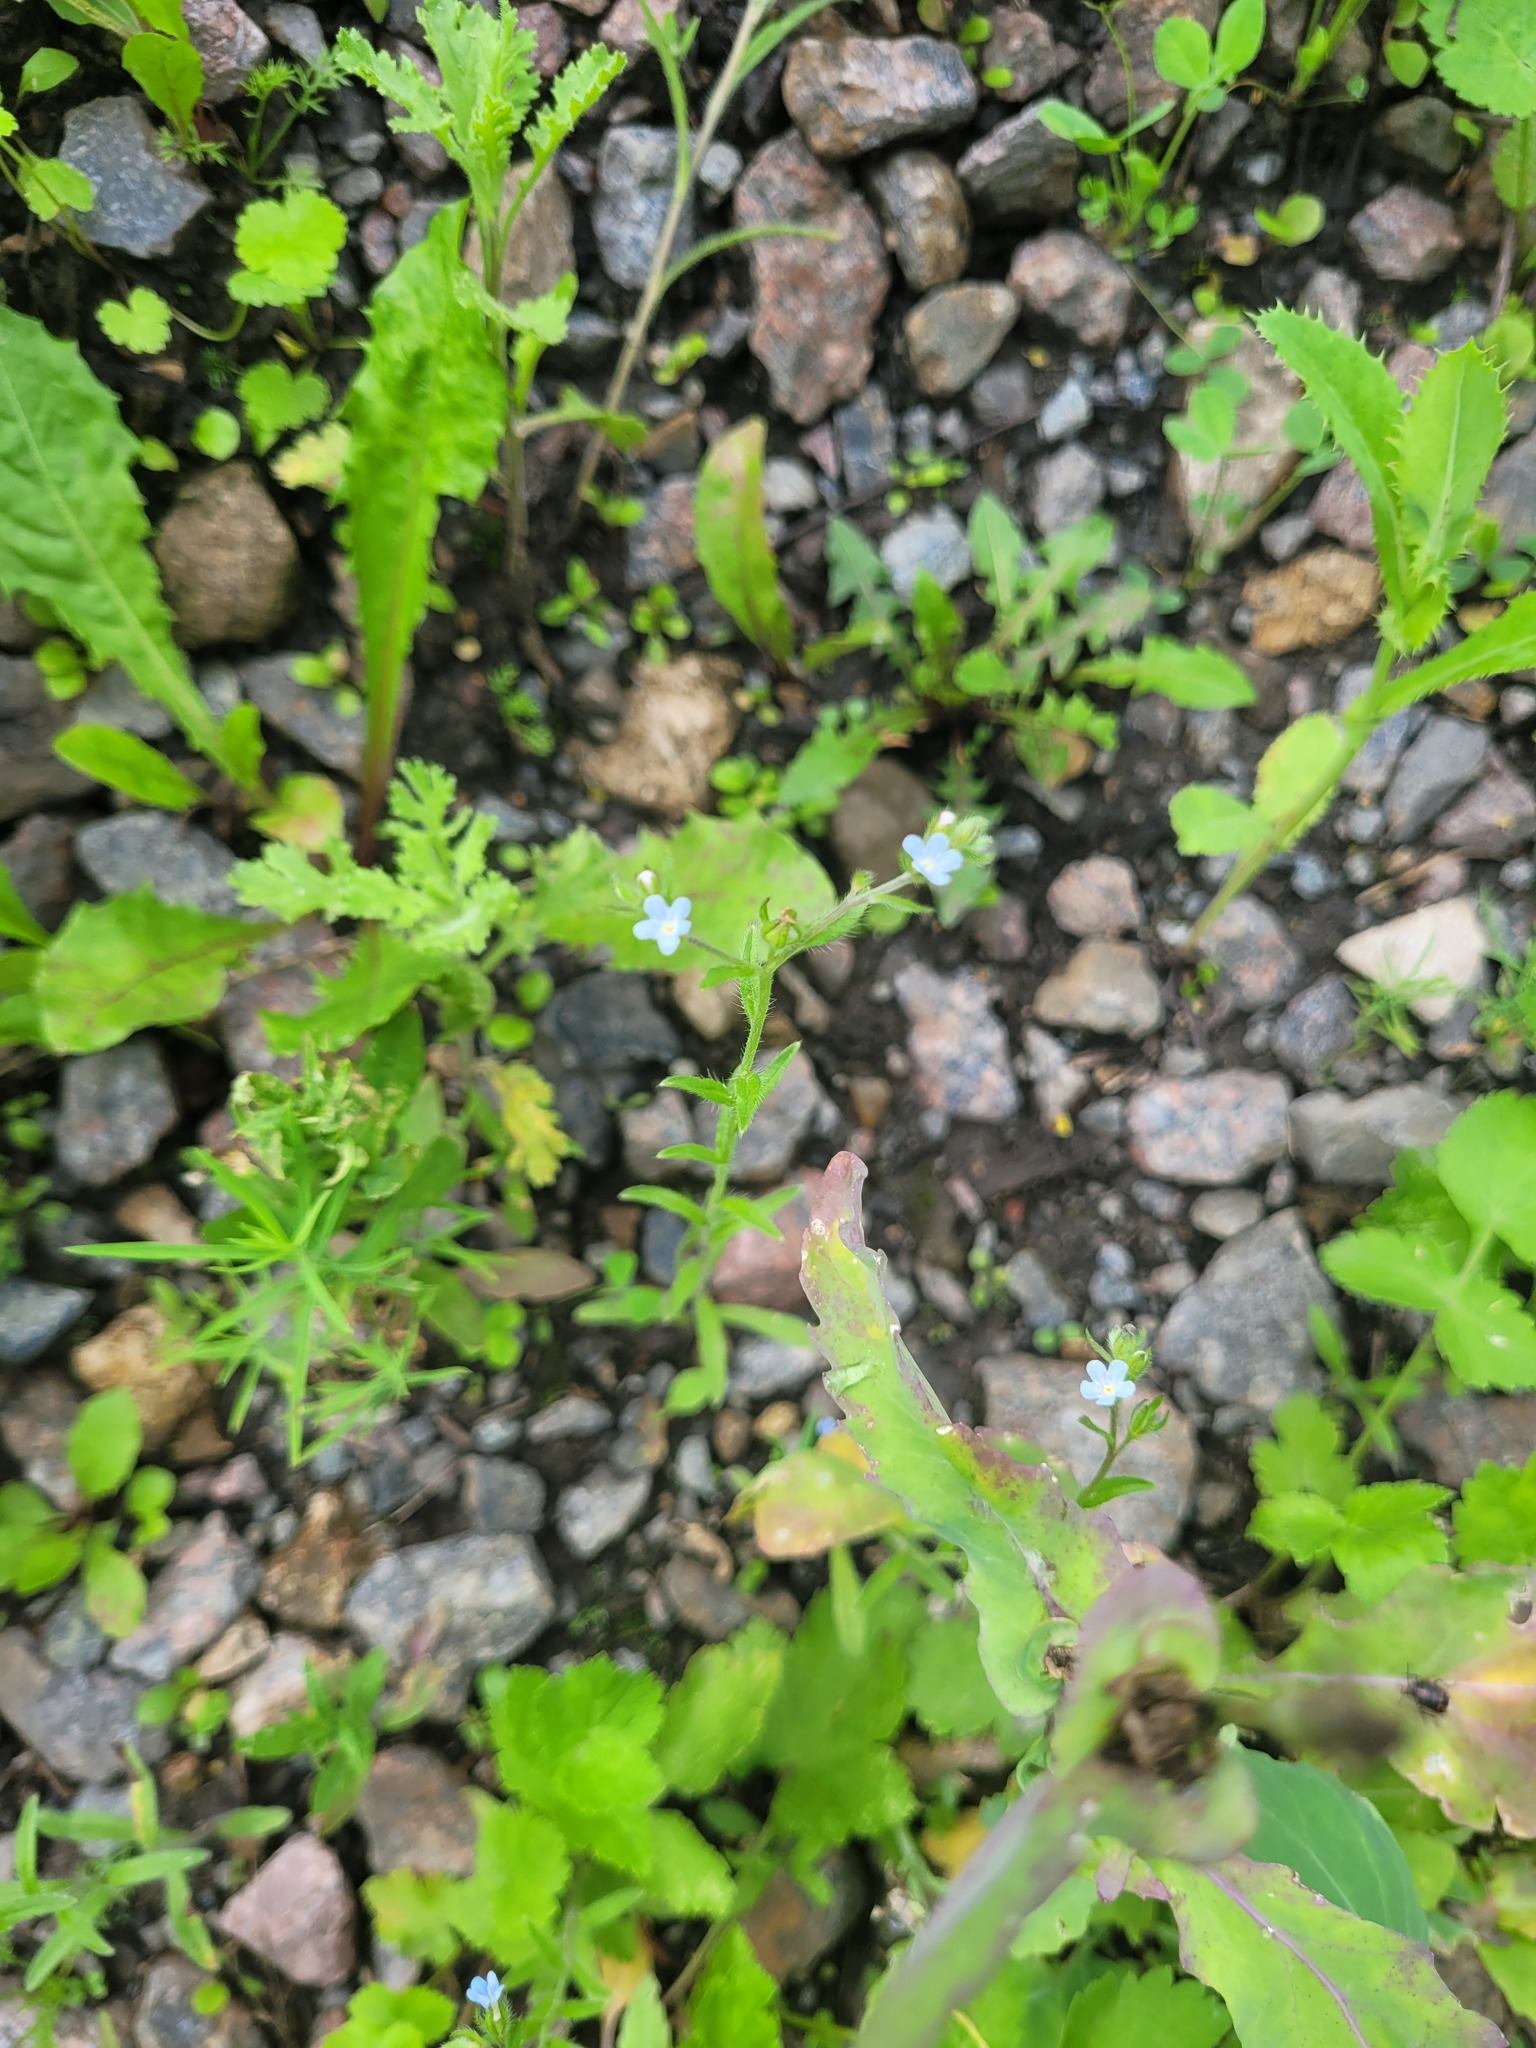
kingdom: Plantae
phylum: Tracheophyta
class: Magnoliopsida
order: Boraginales
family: Boraginaceae
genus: Lappula
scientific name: Lappula squarrosa
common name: European stickseed
